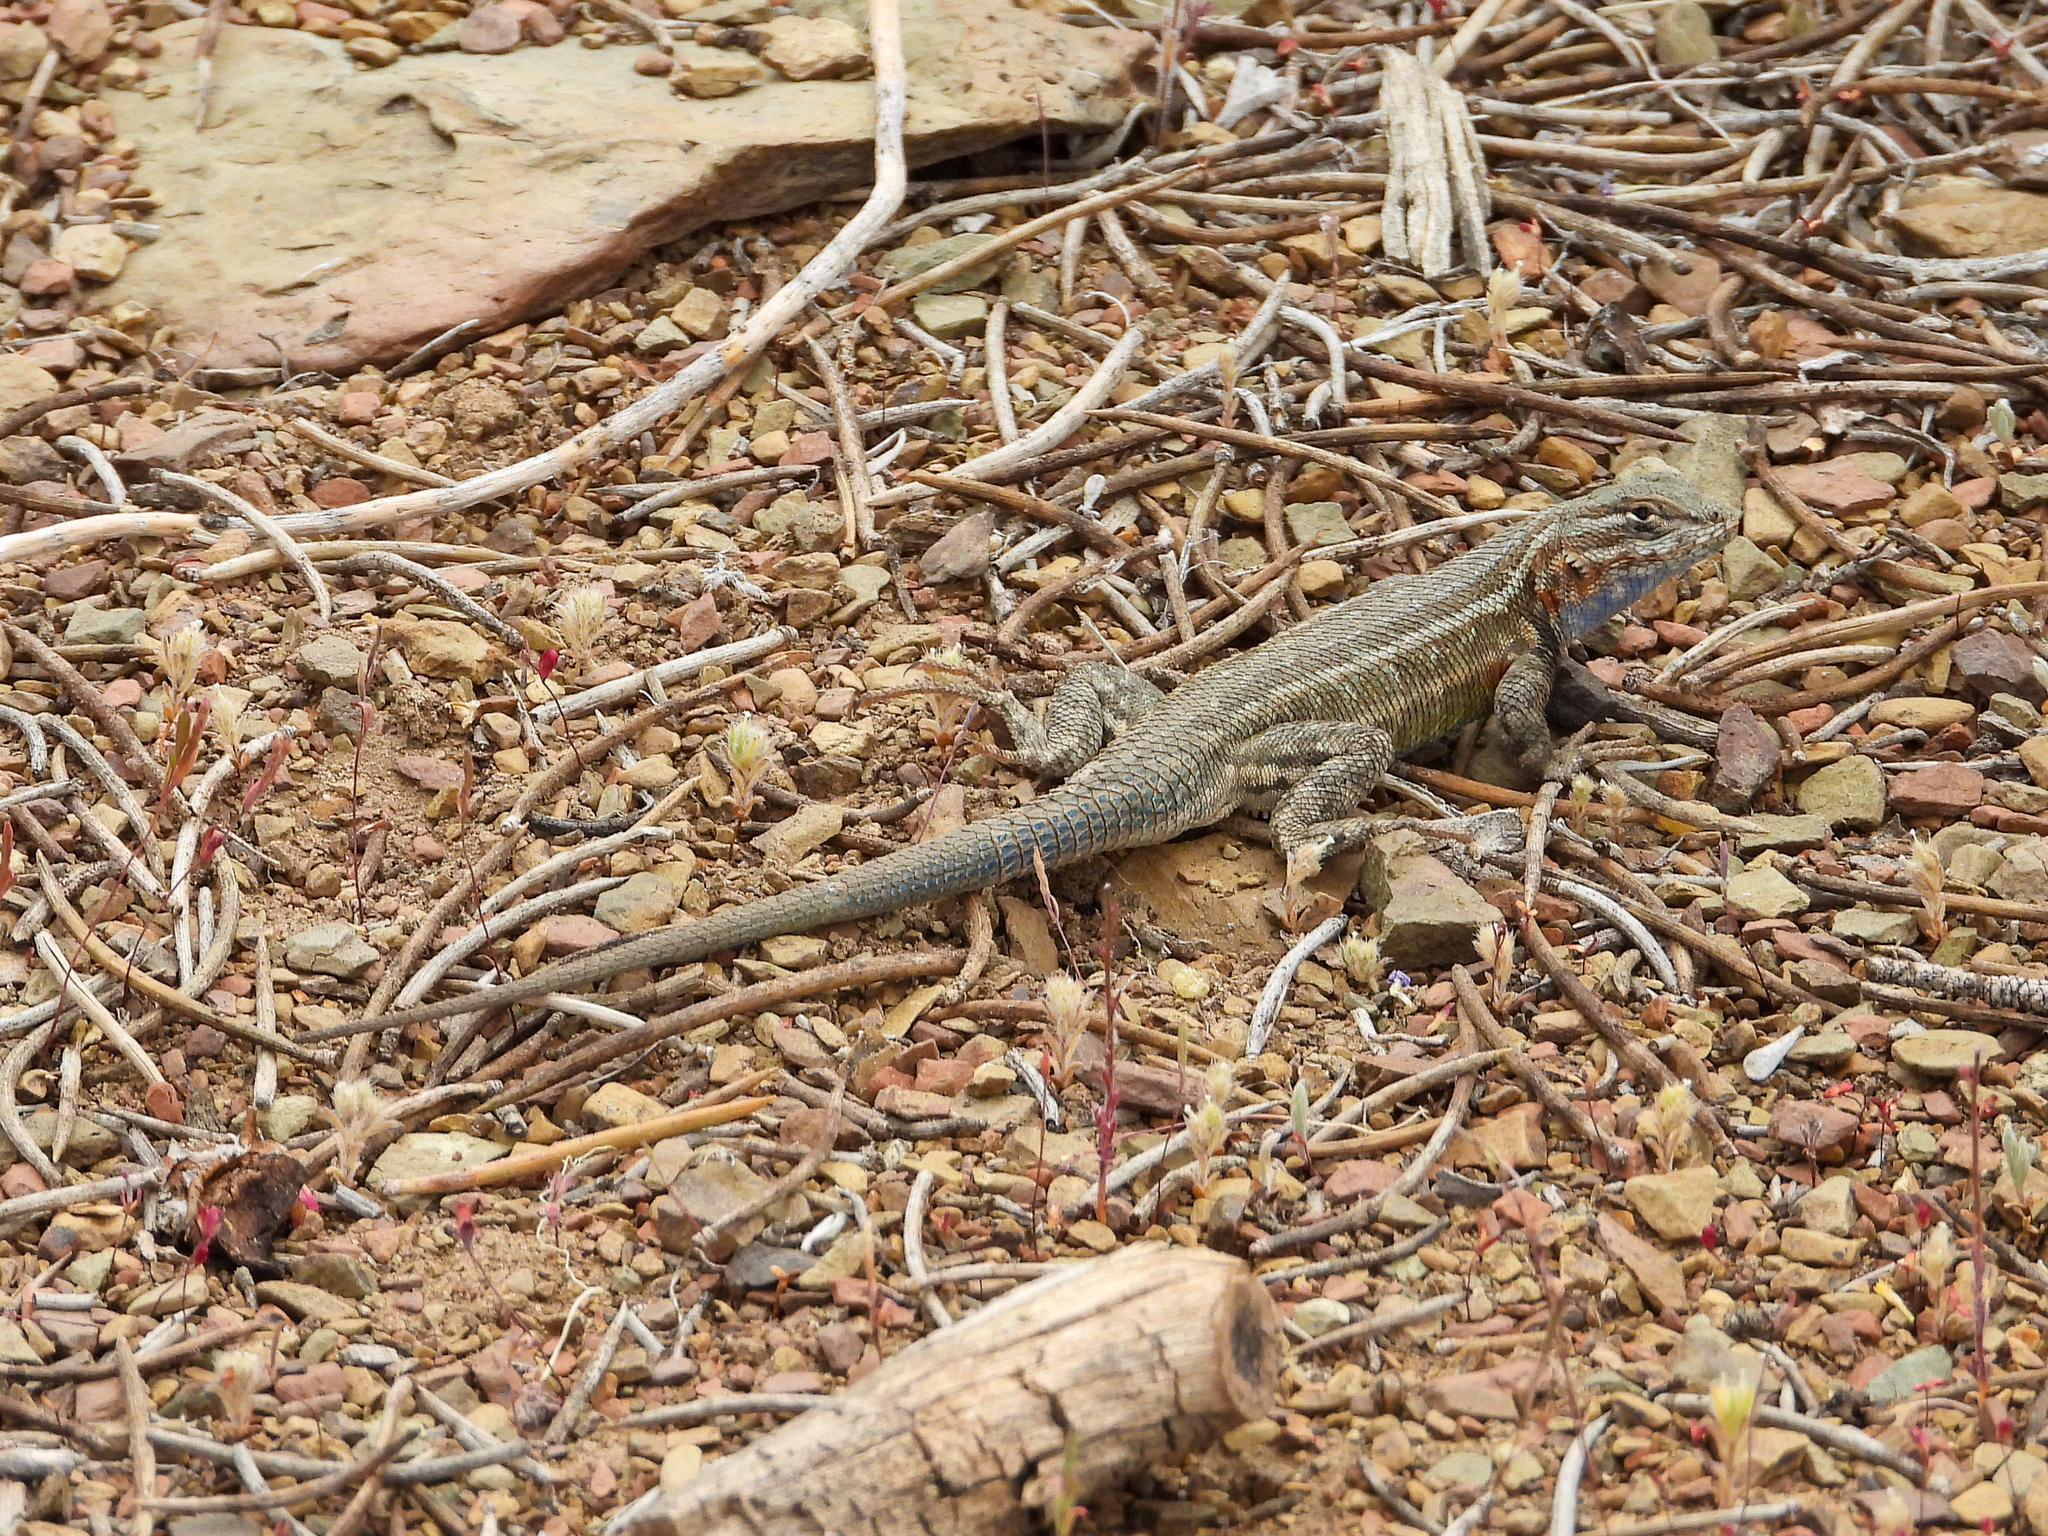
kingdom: Animalia
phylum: Chordata
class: Squamata
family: Phrynosomatidae
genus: Sceloporus
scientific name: Sceloporus graciosus
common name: Sagebrush lizard
